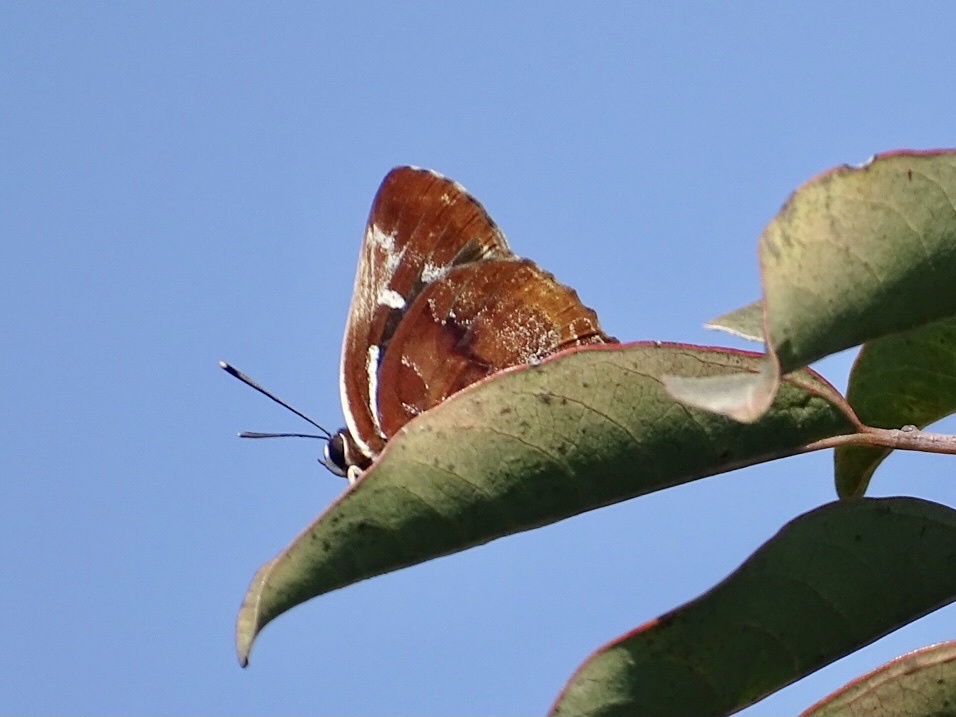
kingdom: Animalia
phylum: Arthropoda
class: Insecta
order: Lepidoptera
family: Lycaenidae
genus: Iraota
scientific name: Iraota timoleon
